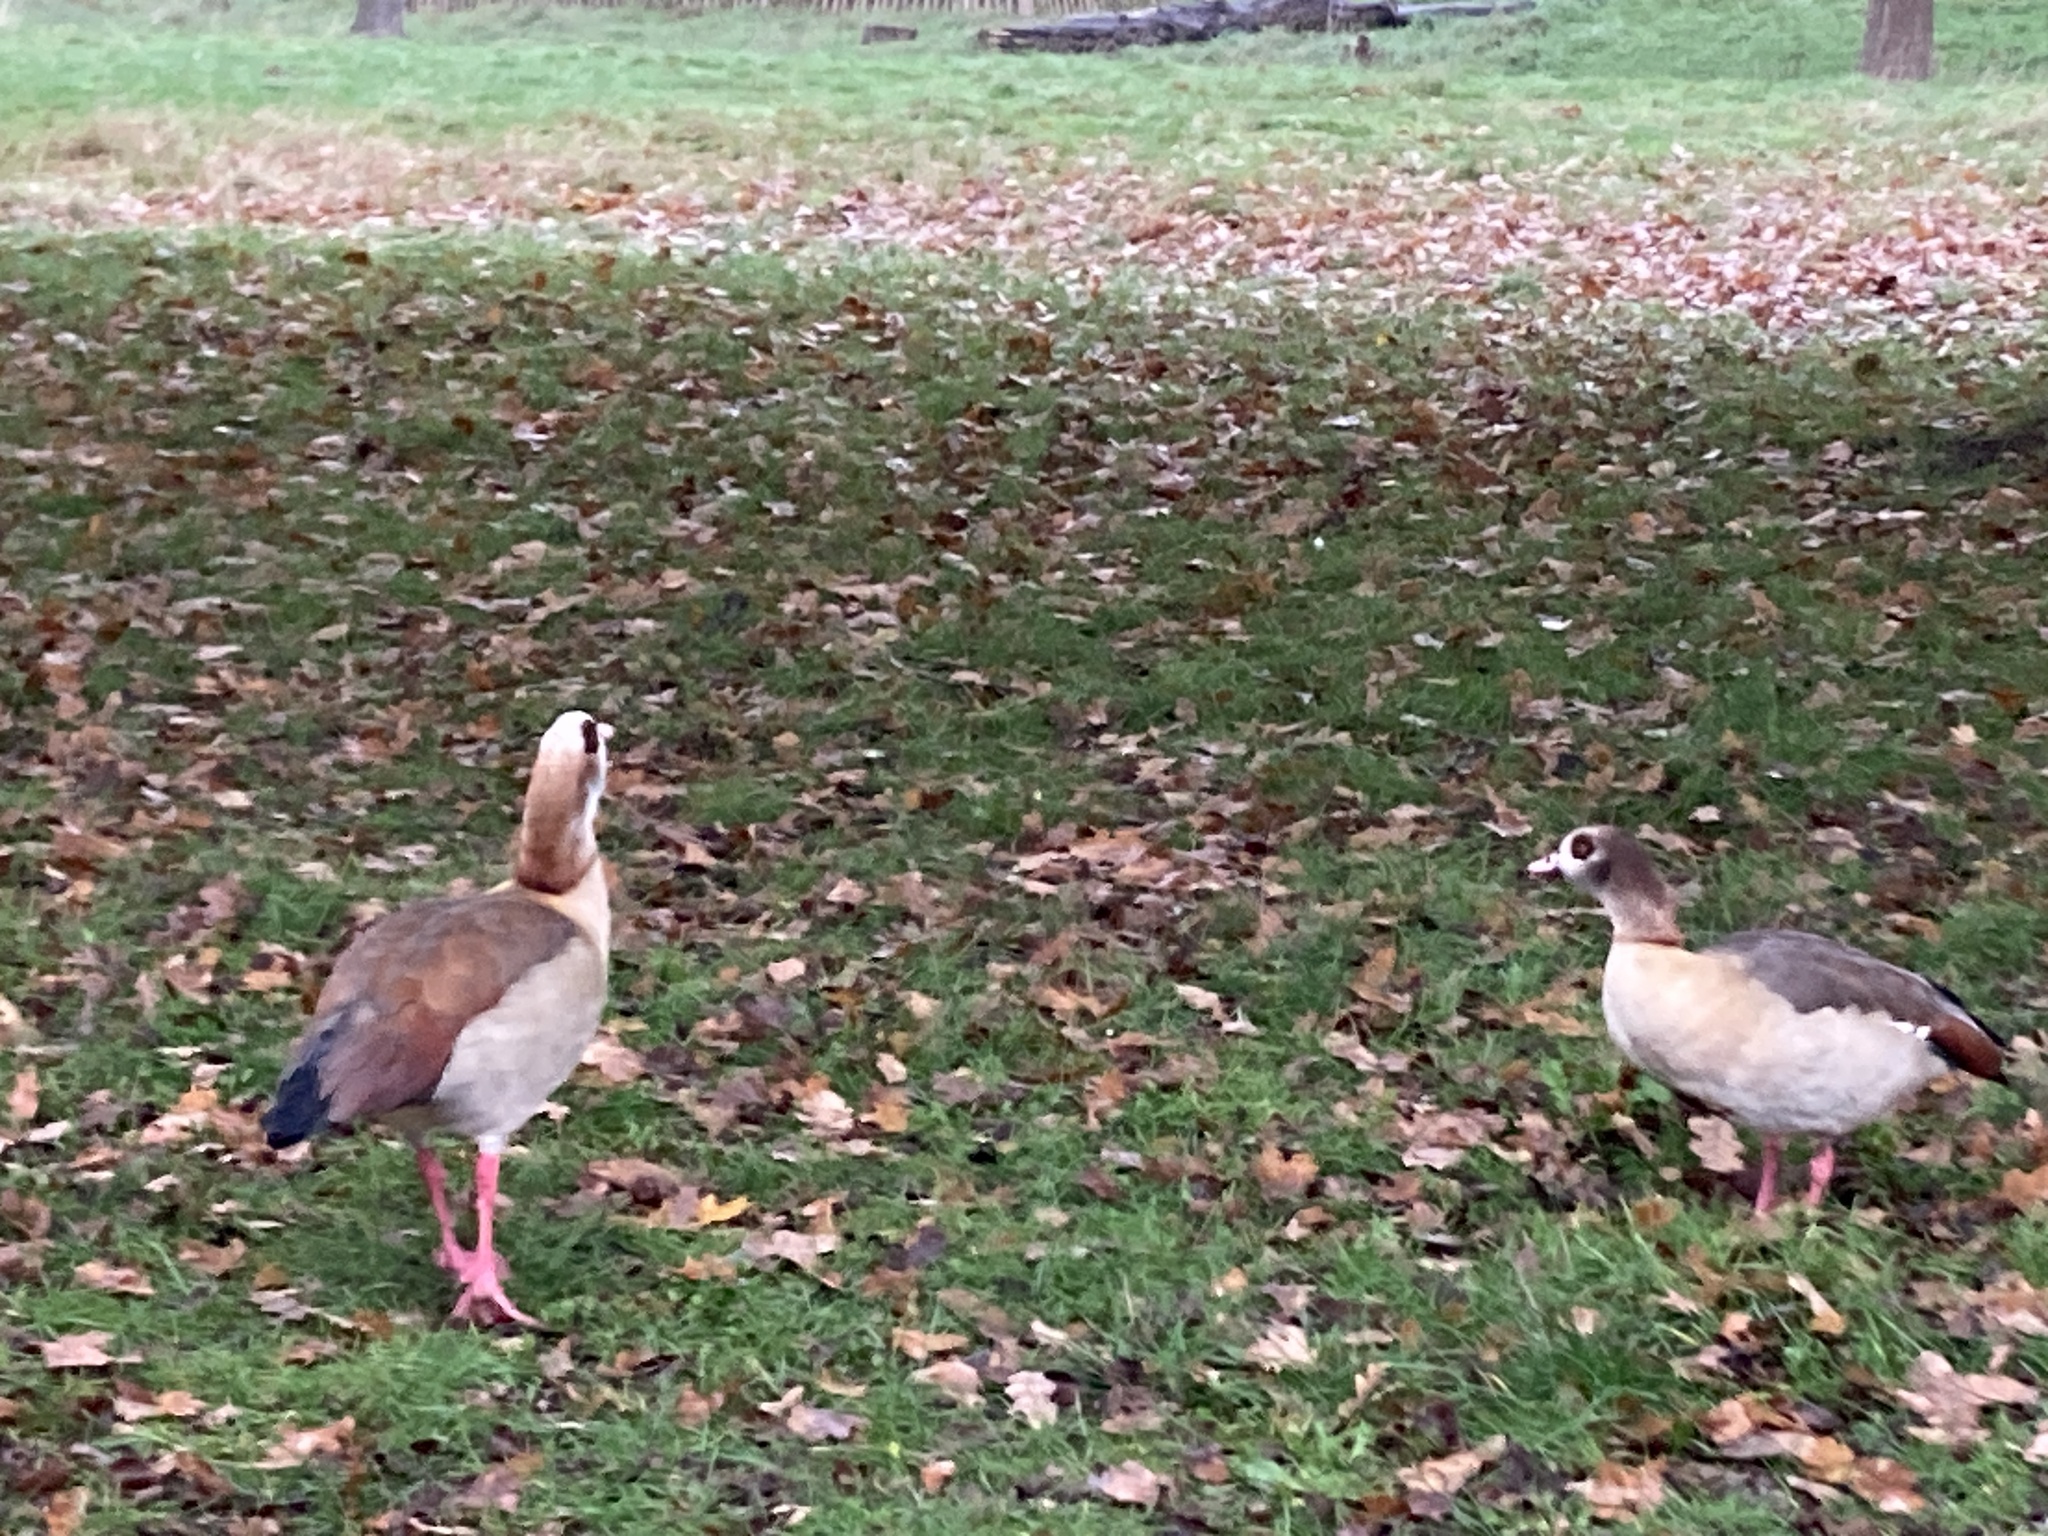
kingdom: Animalia
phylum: Chordata
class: Aves
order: Anseriformes
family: Anatidae
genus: Alopochen
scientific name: Alopochen aegyptiaca
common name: Egyptian goose
